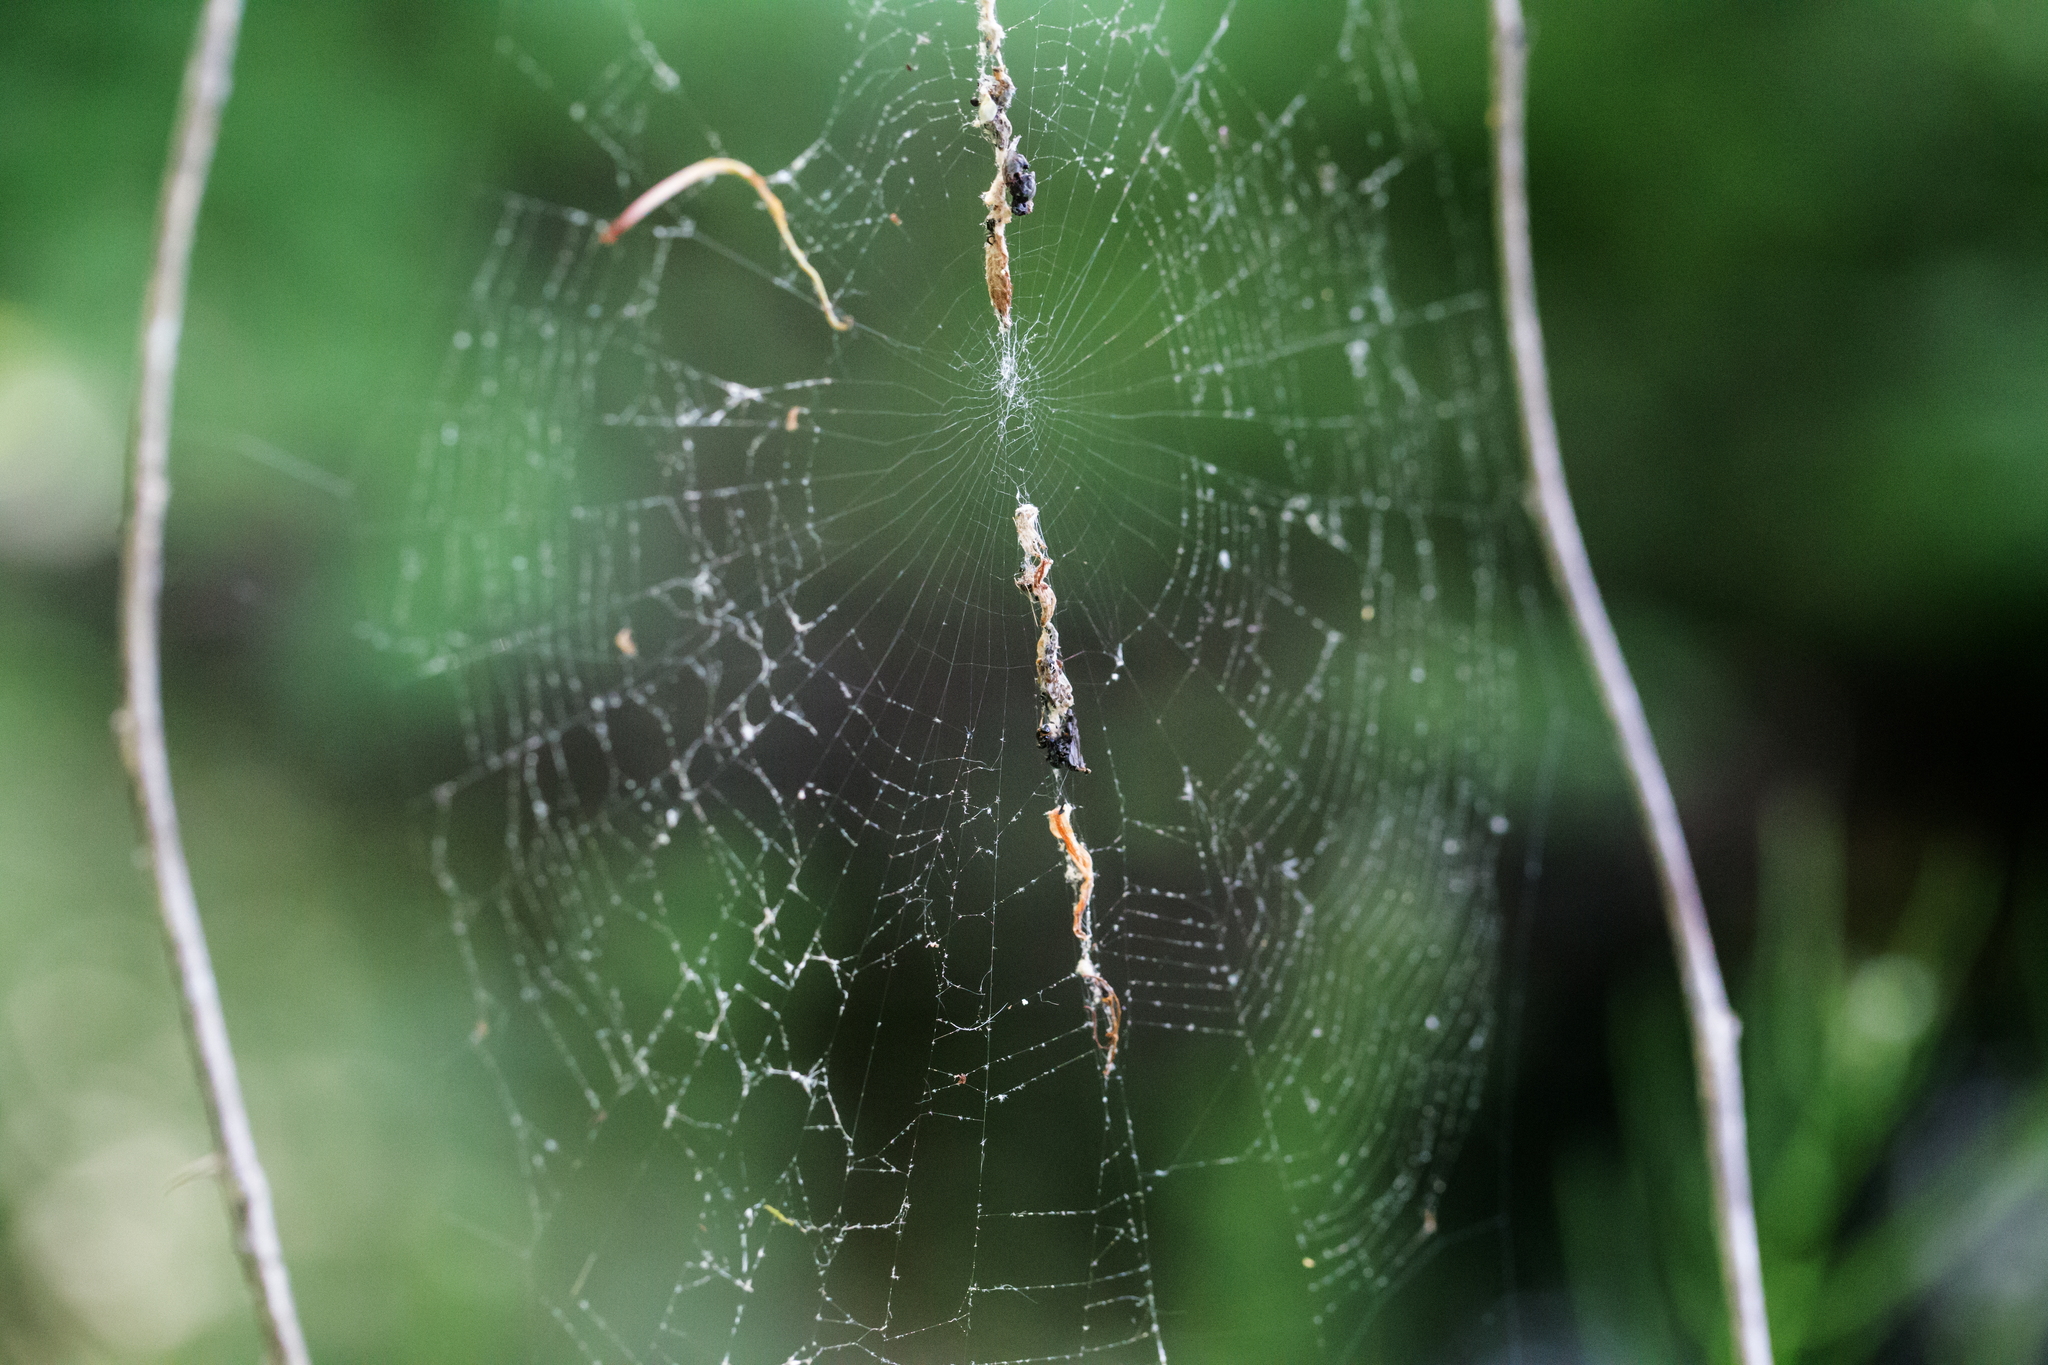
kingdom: Animalia
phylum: Arthropoda
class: Arachnida
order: Araneae
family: Araneidae
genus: Cyclosa
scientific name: Cyclosa conica
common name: Conical trashline orbweaver
